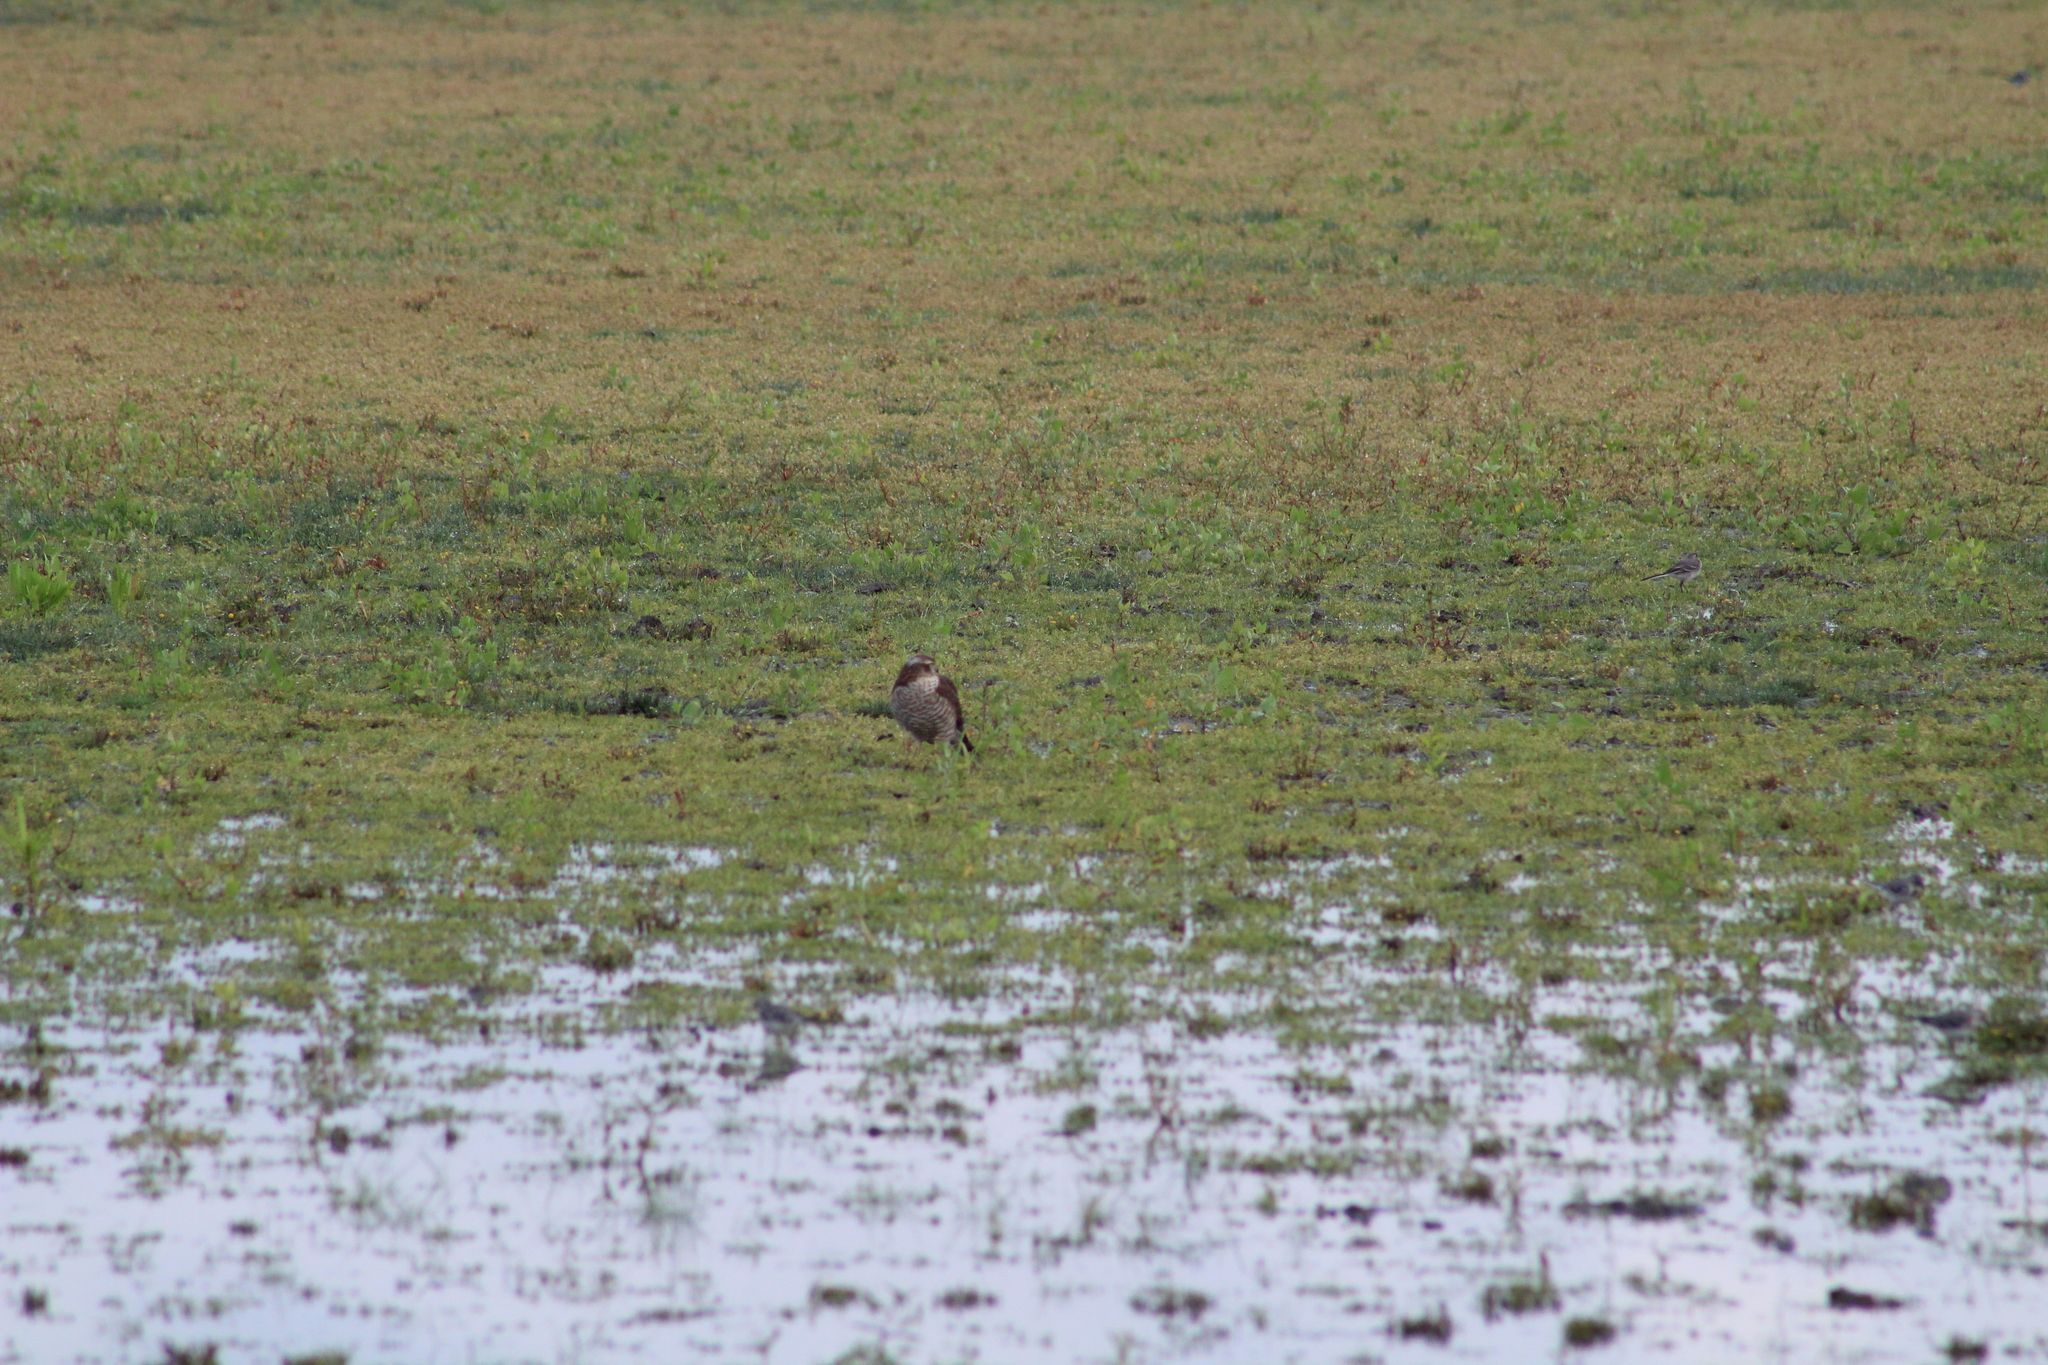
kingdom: Animalia
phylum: Chordata
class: Aves
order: Accipitriformes
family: Accipitridae
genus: Accipiter
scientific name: Accipiter nisus
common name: Eurasian sparrowhawk
